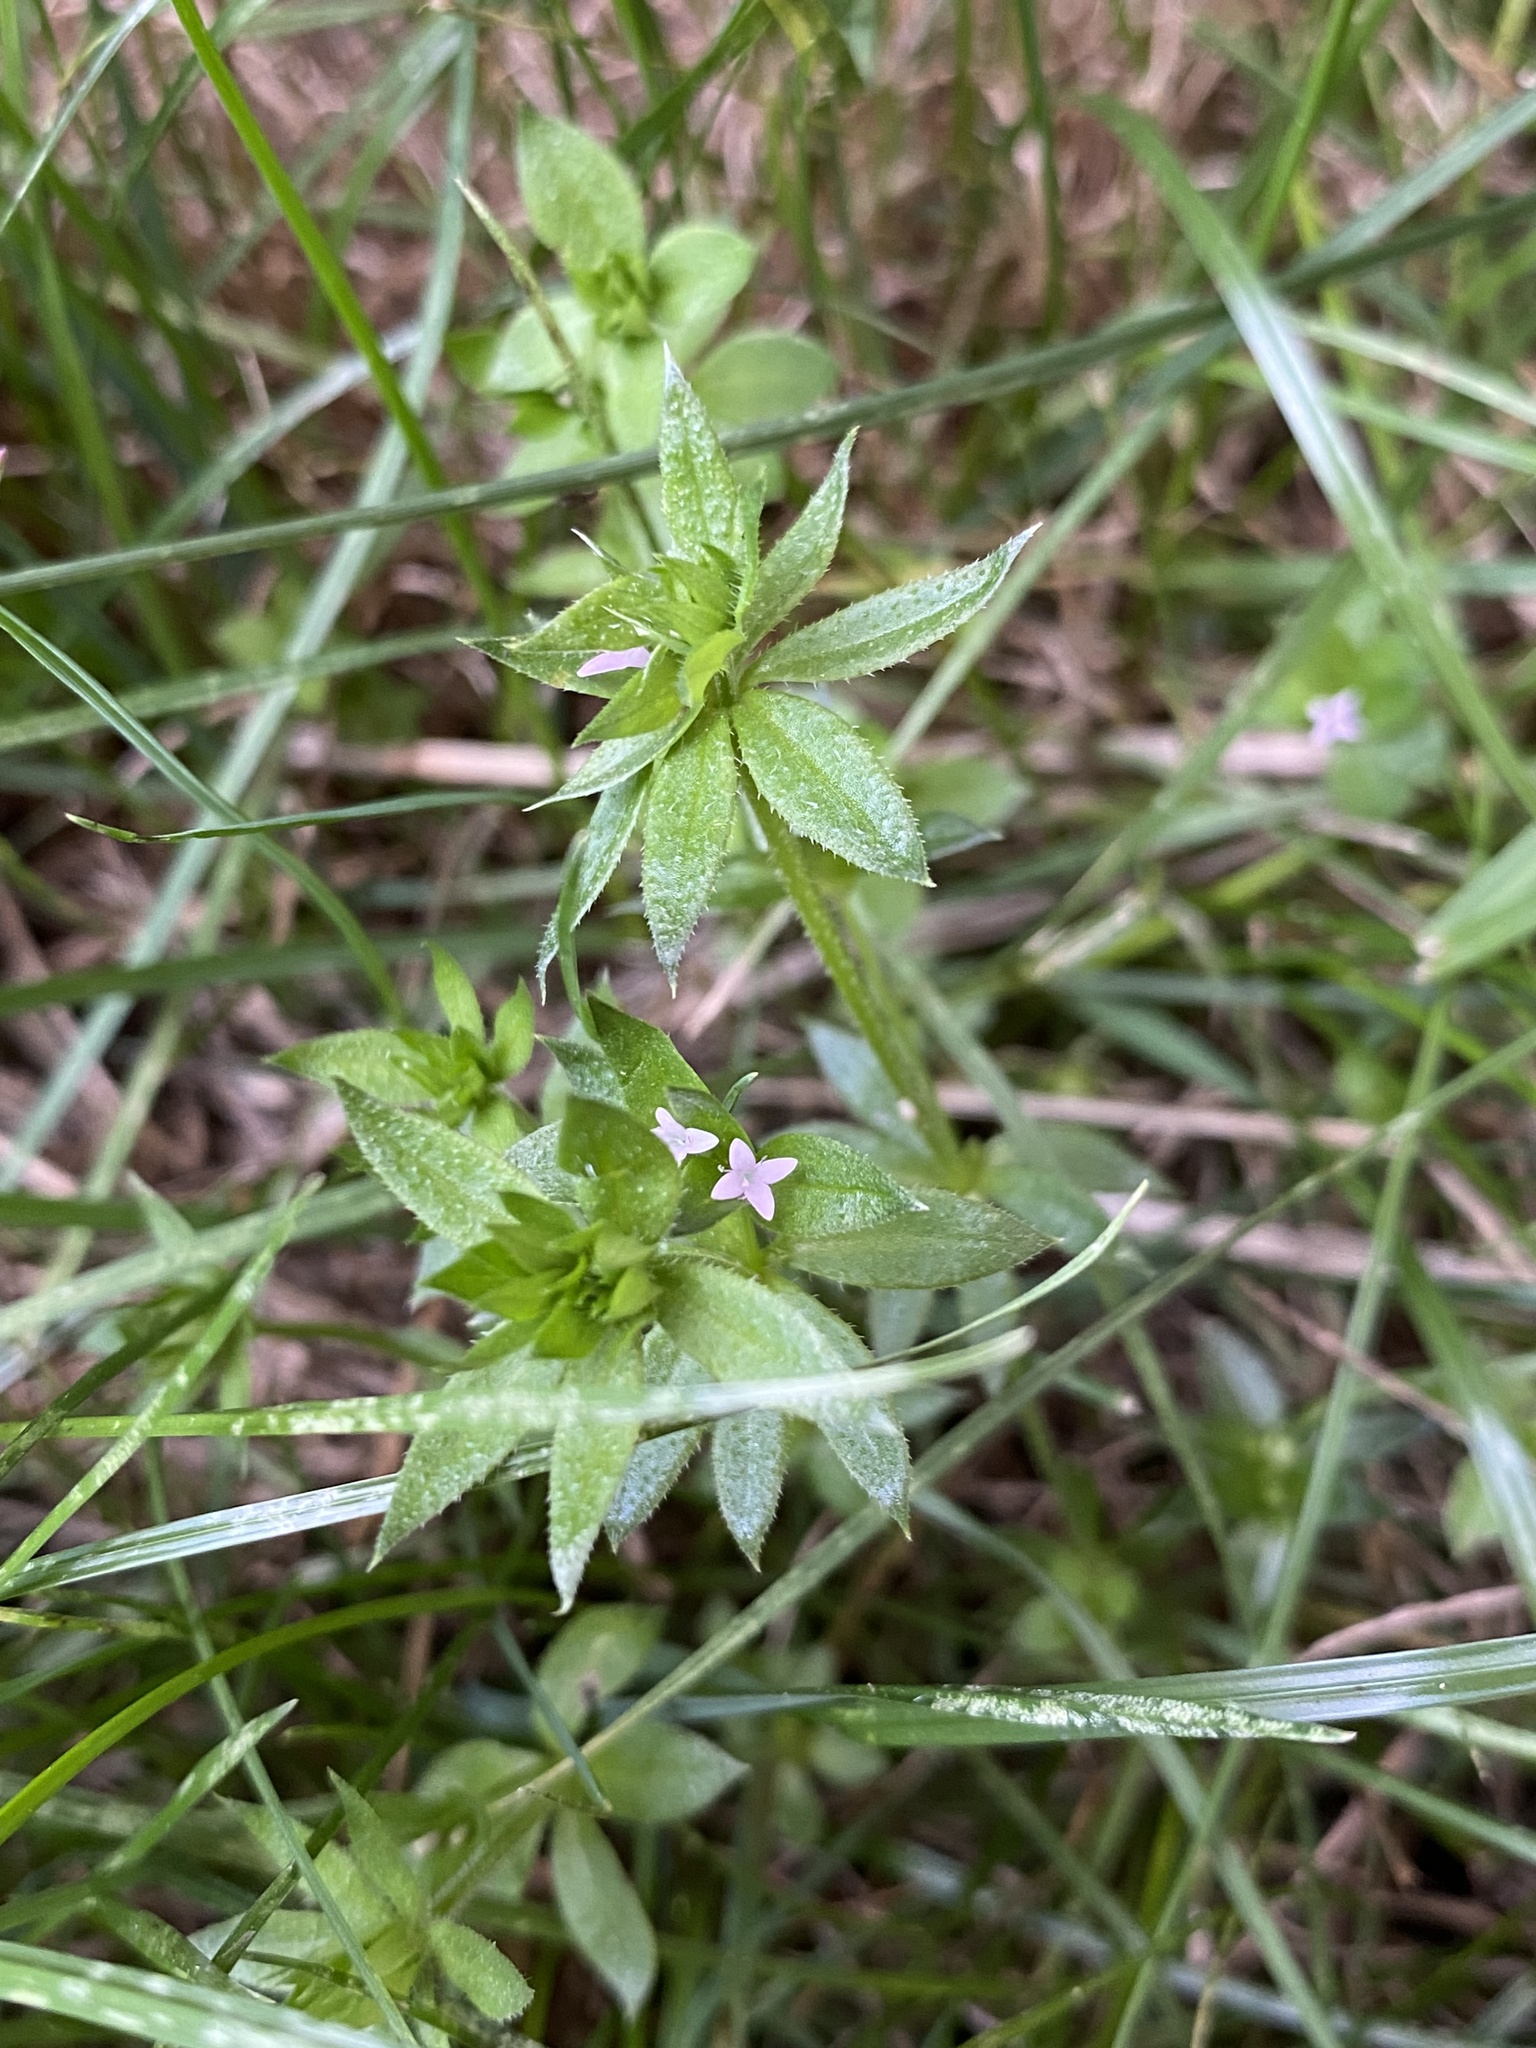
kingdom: Plantae
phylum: Tracheophyta
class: Magnoliopsida
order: Gentianales
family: Rubiaceae
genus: Sherardia
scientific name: Sherardia arvensis
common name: Field madder
